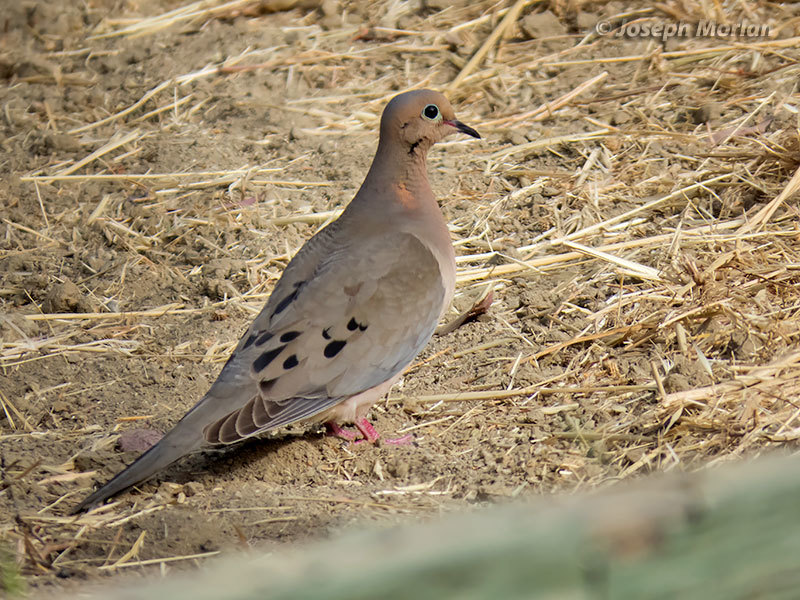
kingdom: Animalia
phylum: Chordata
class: Aves
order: Columbiformes
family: Columbidae
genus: Zenaida
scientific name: Zenaida macroura
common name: Mourning dove
